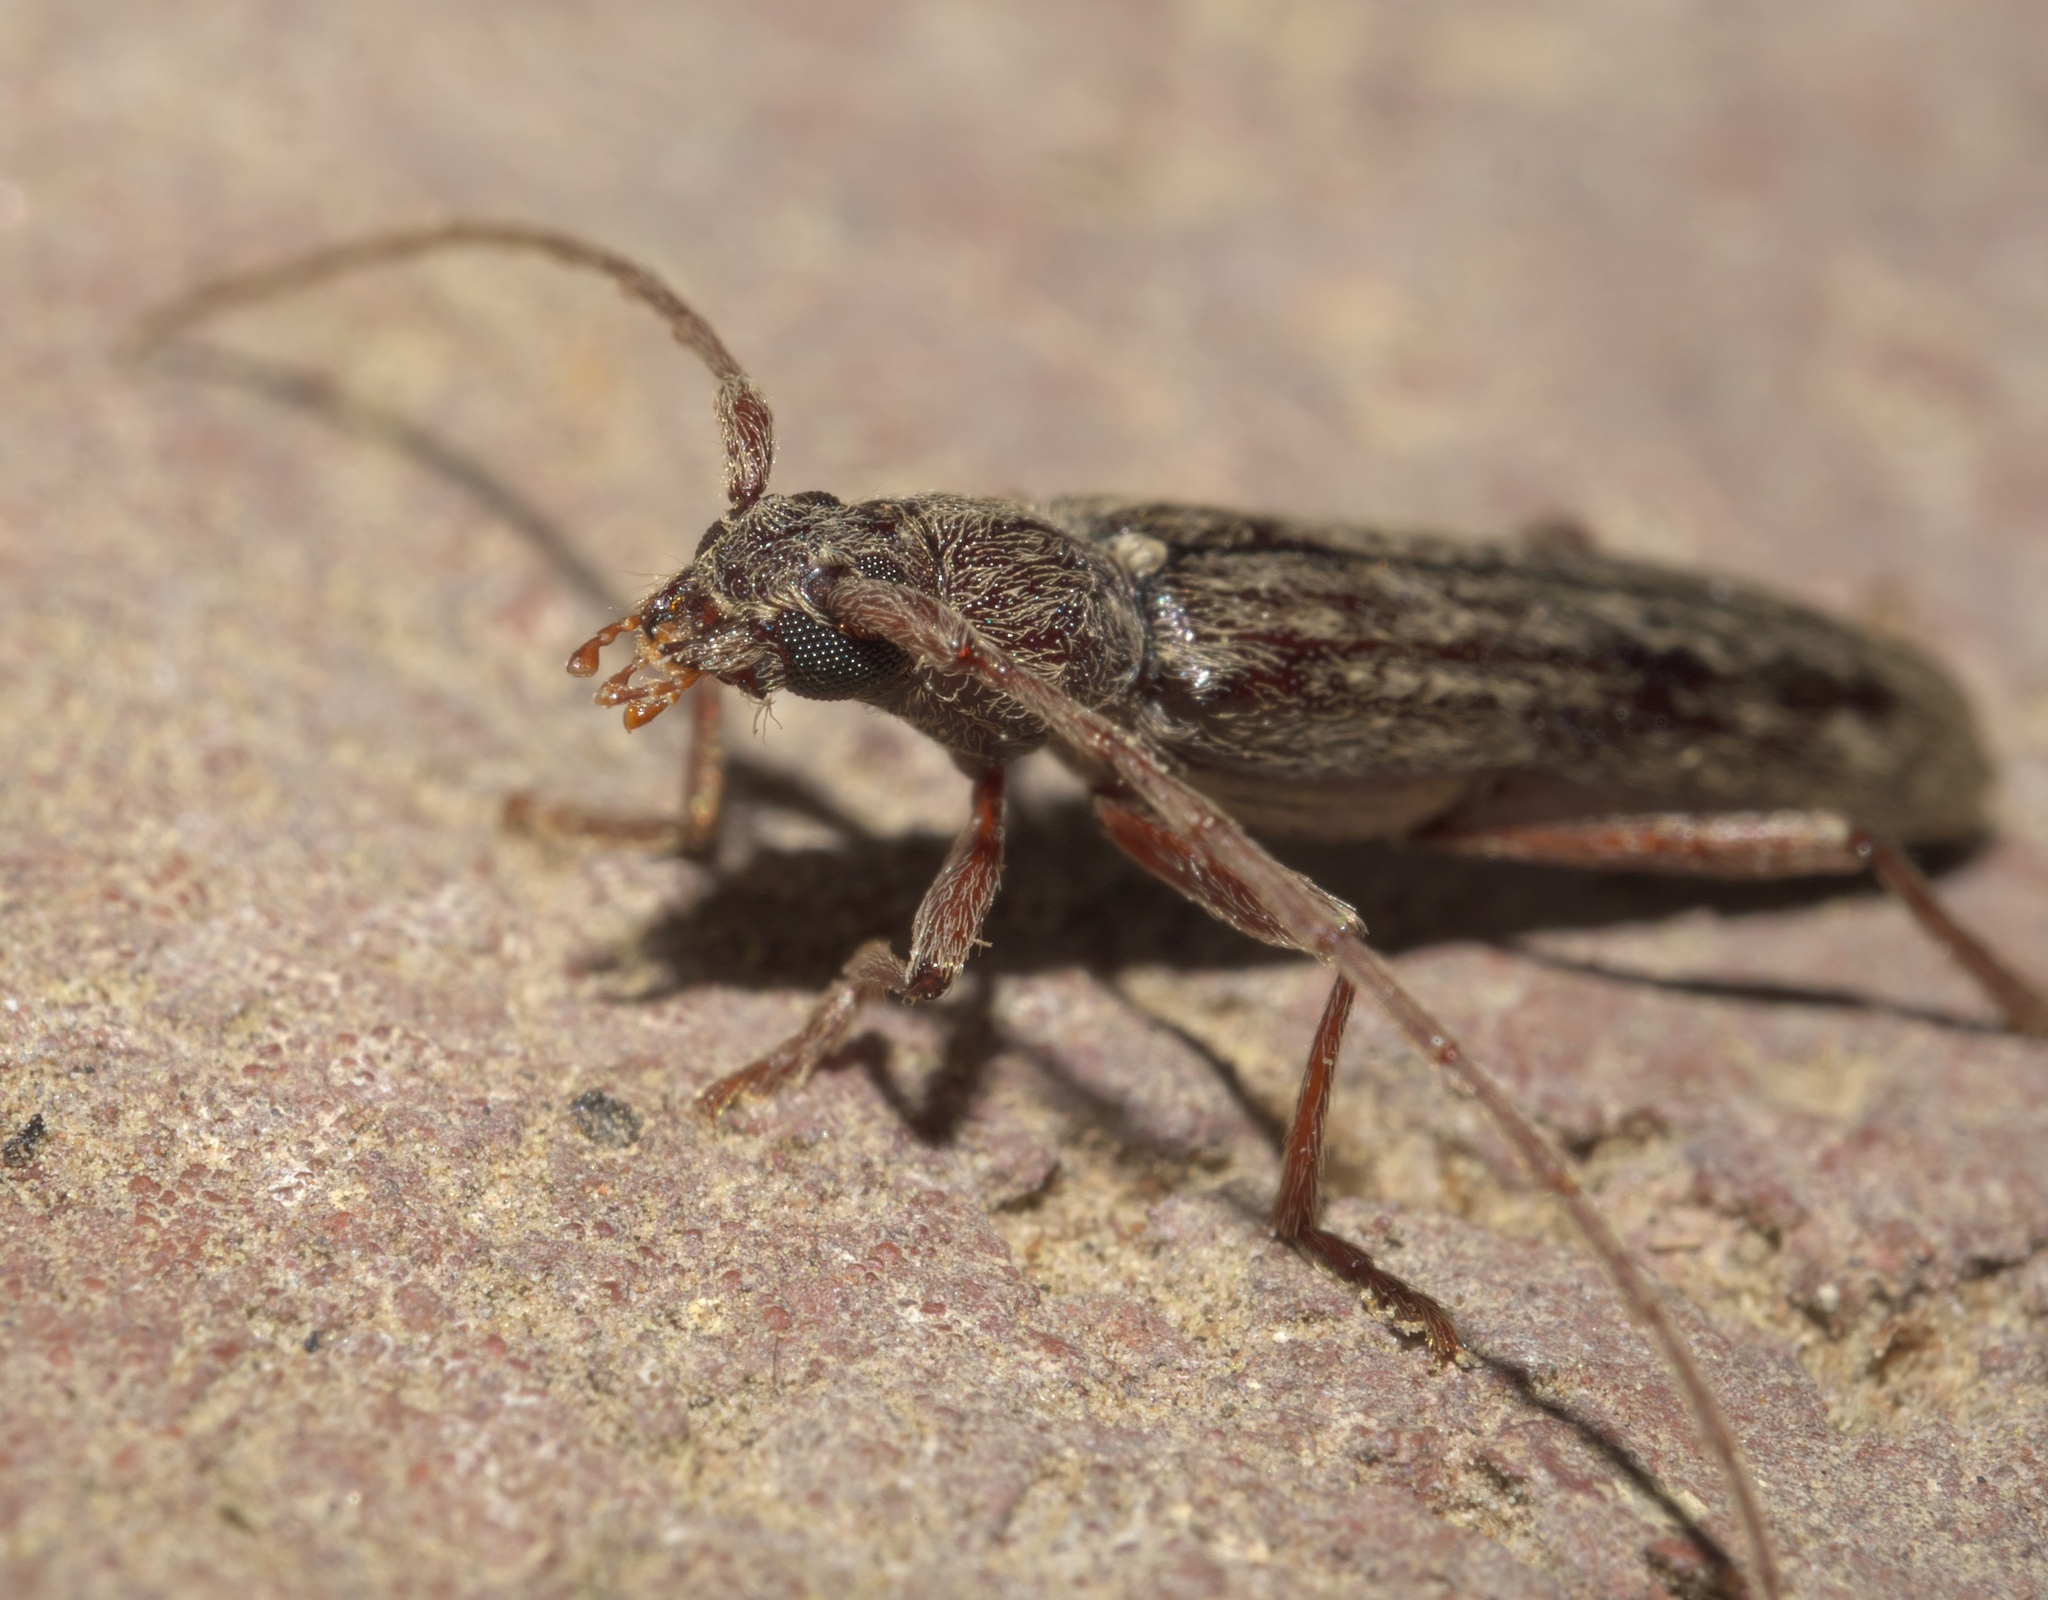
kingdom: Animalia
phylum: Arthropoda
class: Insecta
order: Coleoptera
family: Cerambycidae
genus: Anelaphus
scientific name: Anelaphus villosus
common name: Twig pruner
